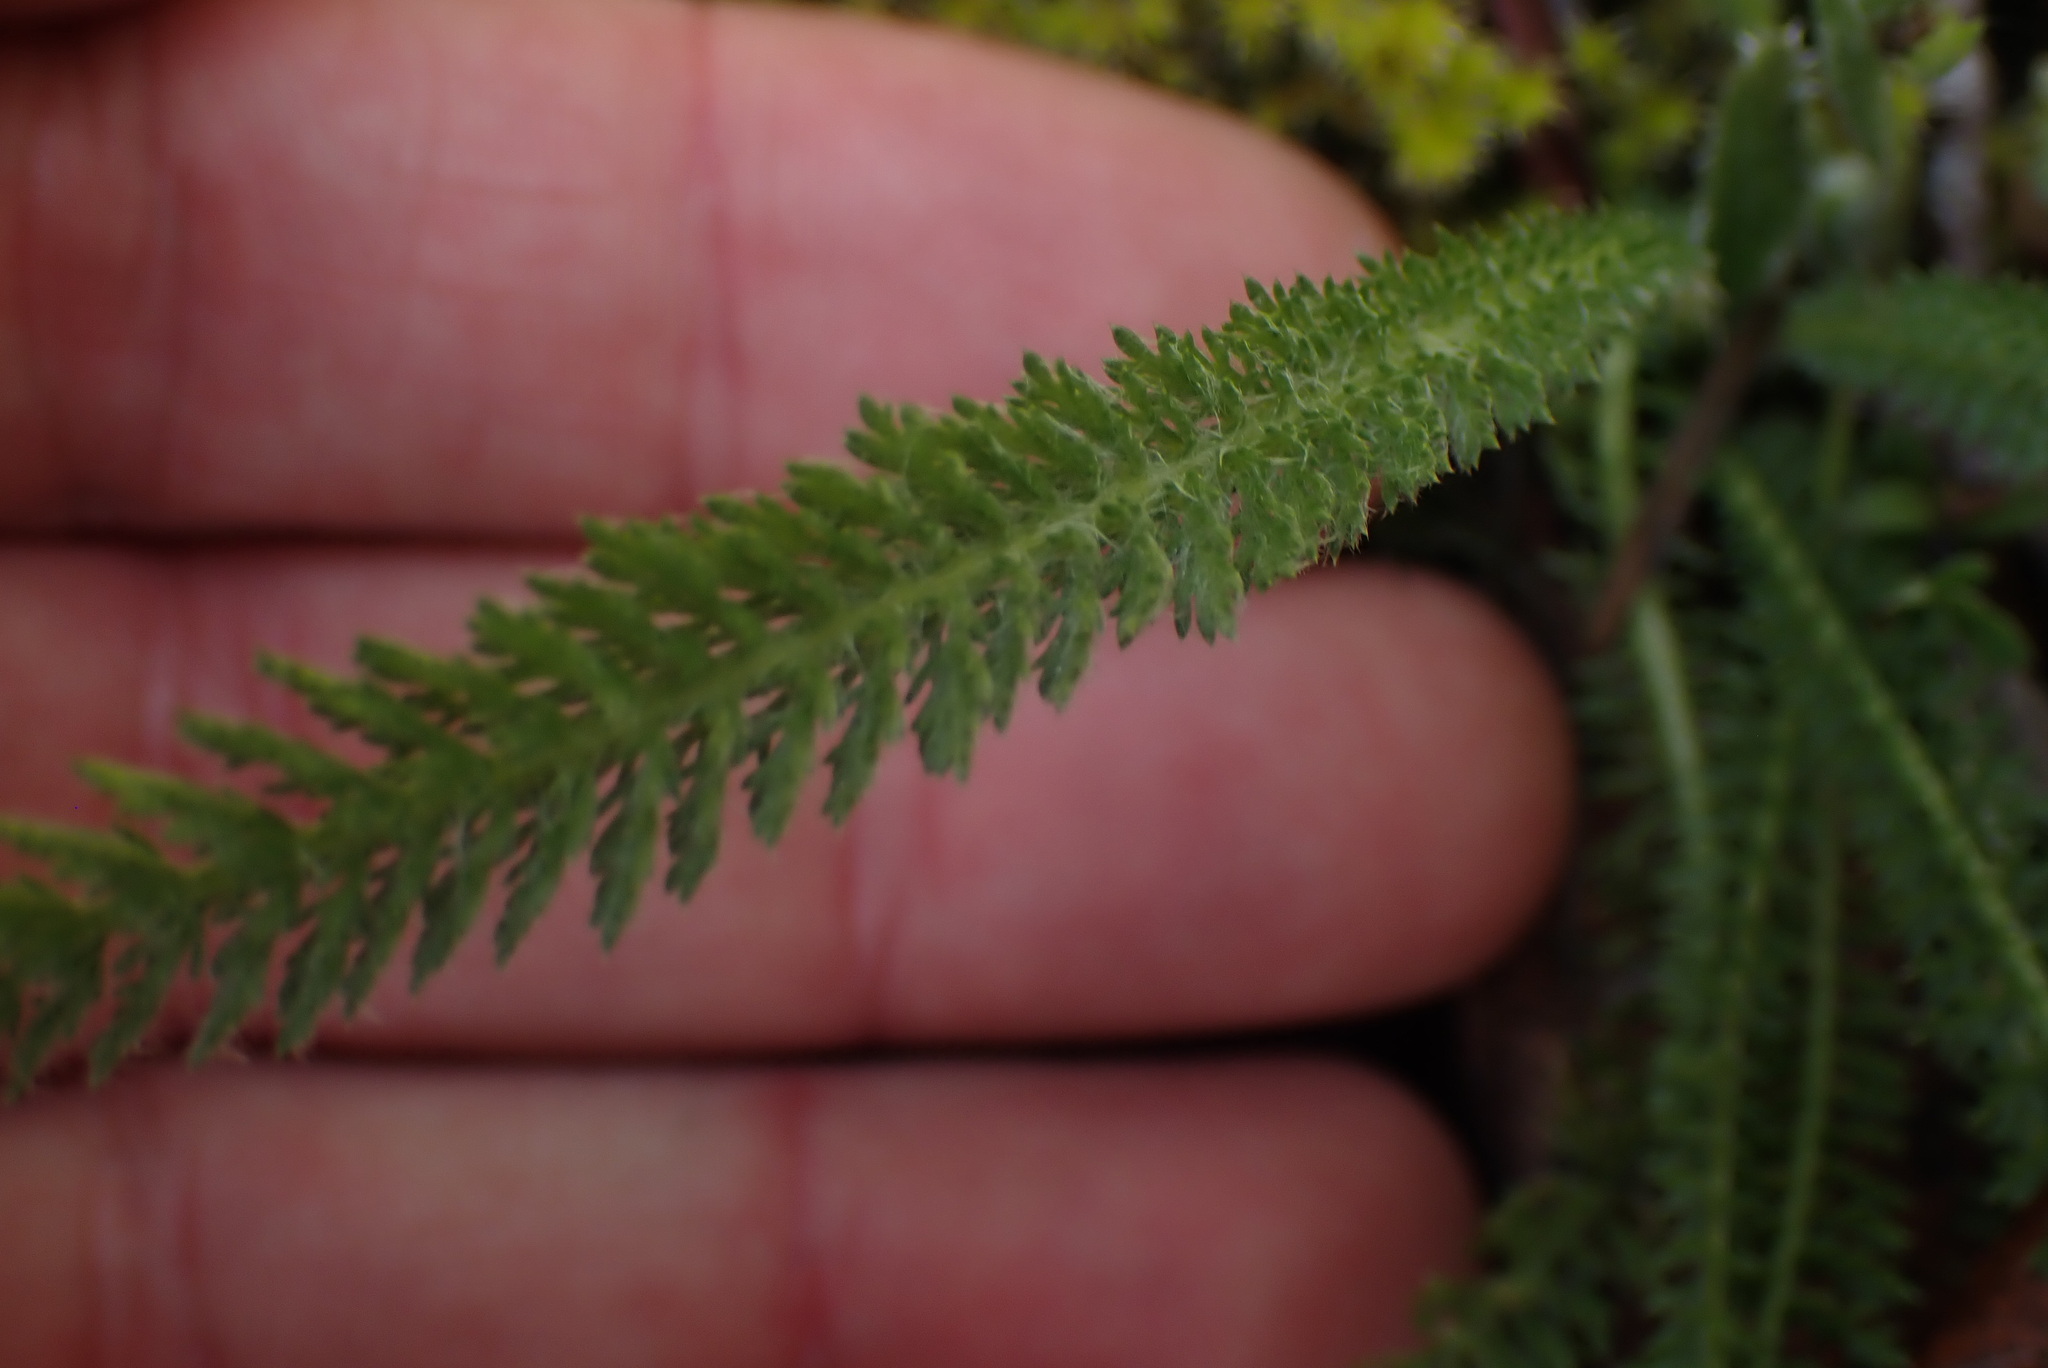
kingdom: Plantae
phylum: Tracheophyta
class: Magnoliopsida
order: Asterales
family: Asteraceae
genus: Achillea
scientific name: Achillea millefolium
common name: Yarrow
